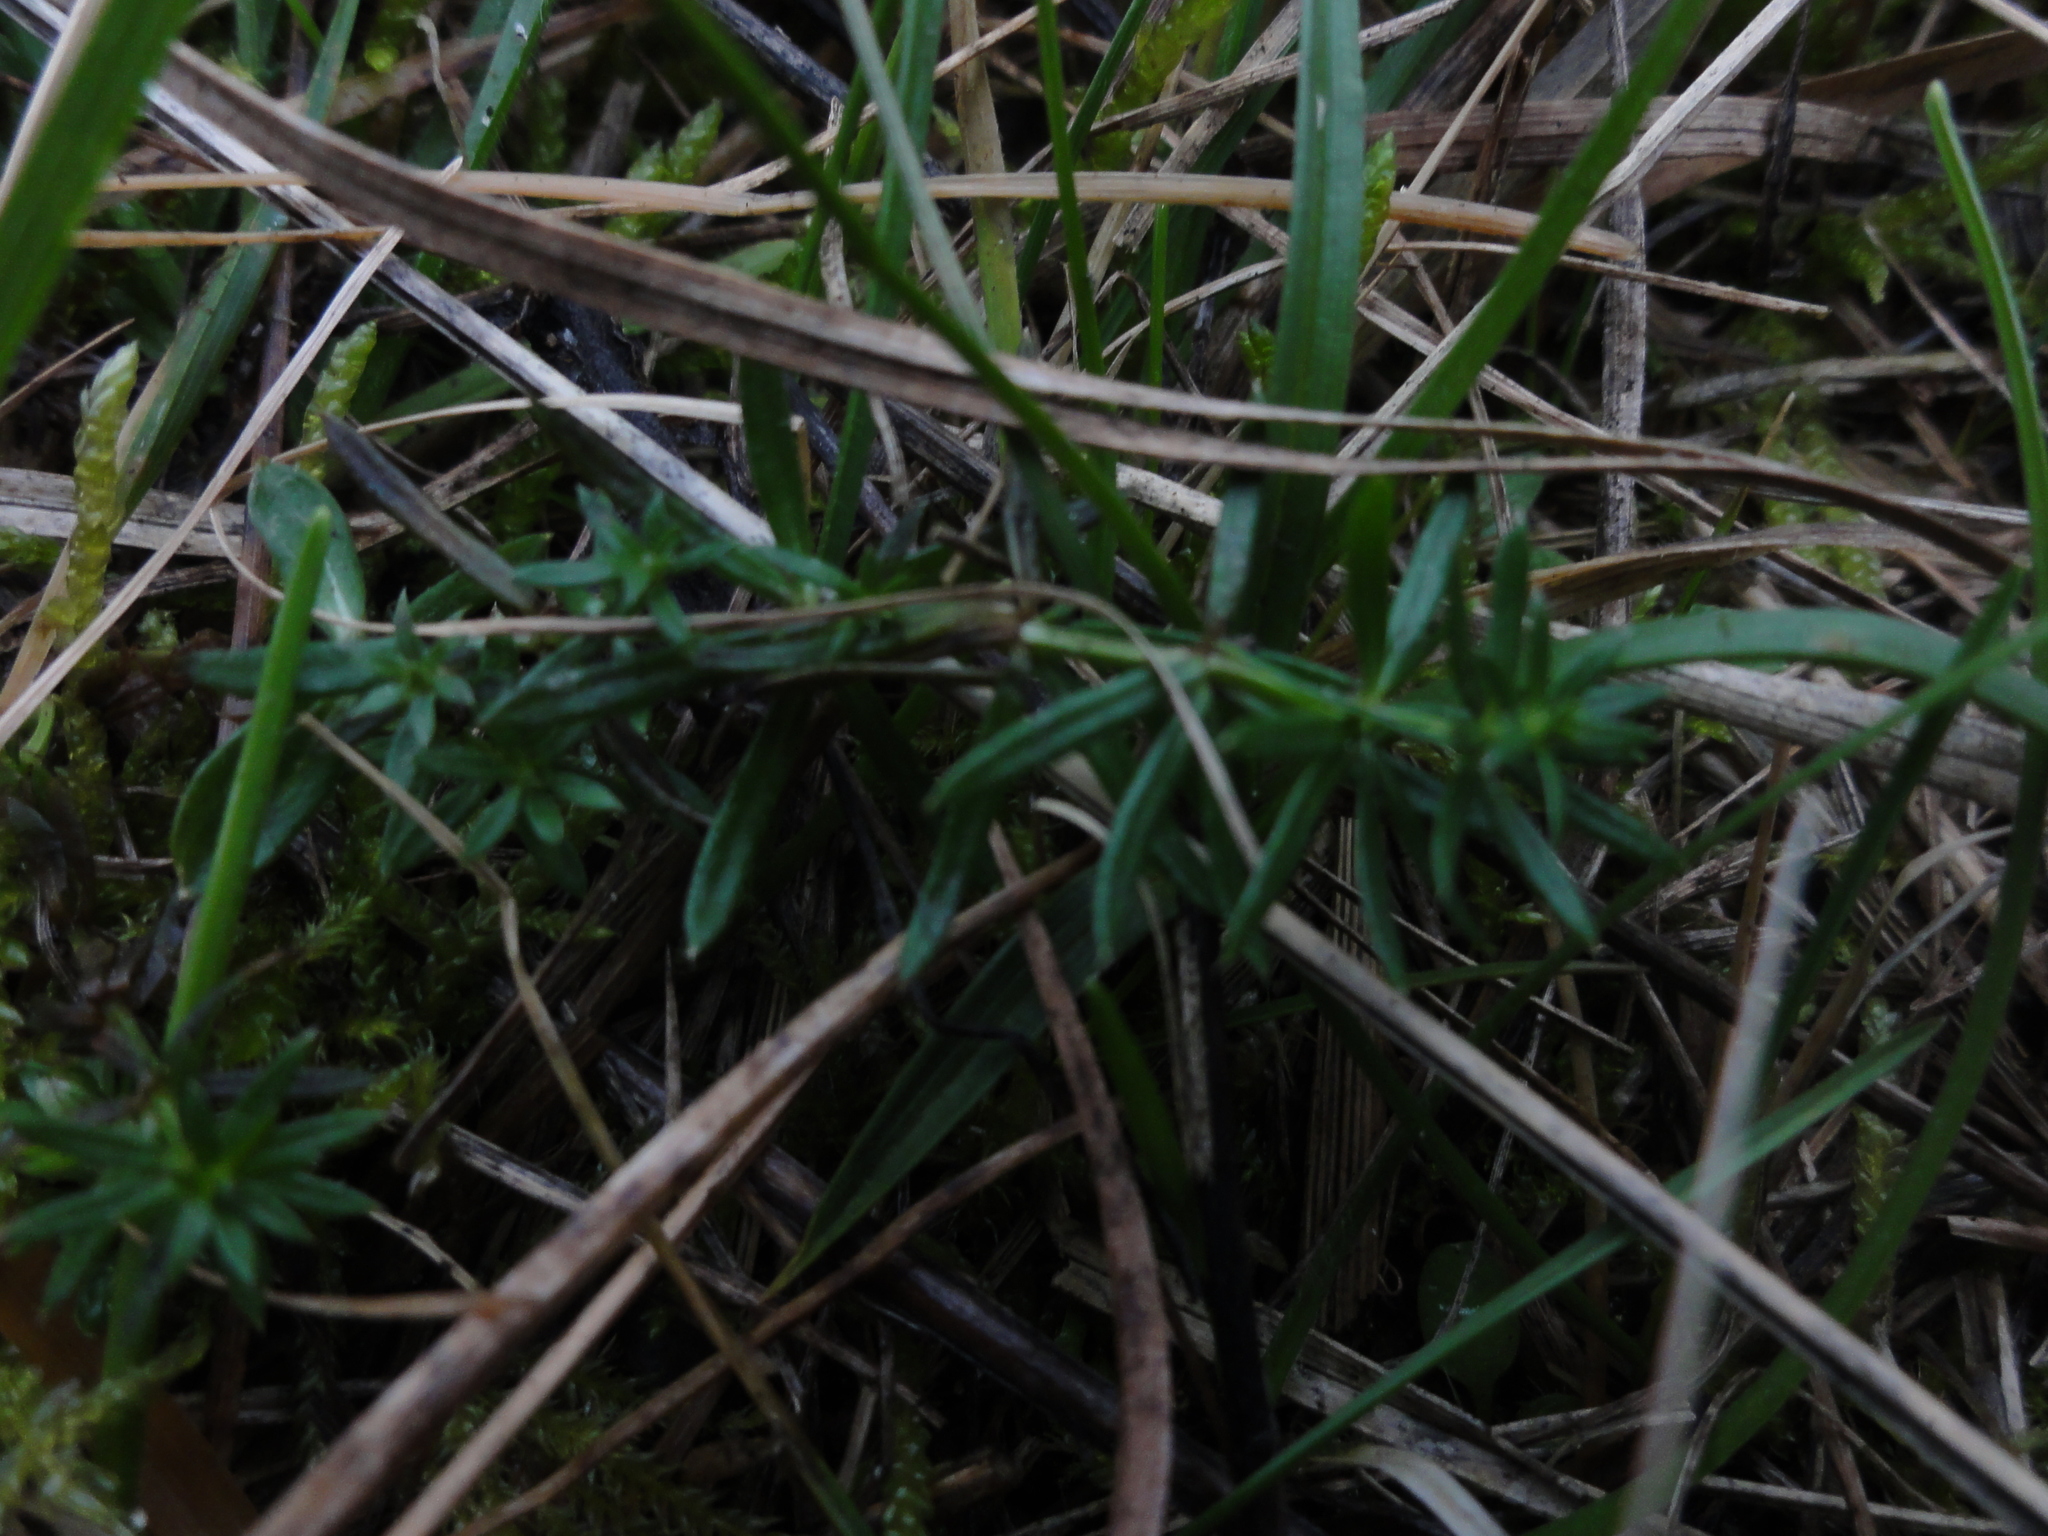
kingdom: Plantae
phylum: Tracheophyta
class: Magnoliopsida
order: Gentianales
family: Rubiaceae
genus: Galium
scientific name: Galium verum
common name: Lady's bedstraw
